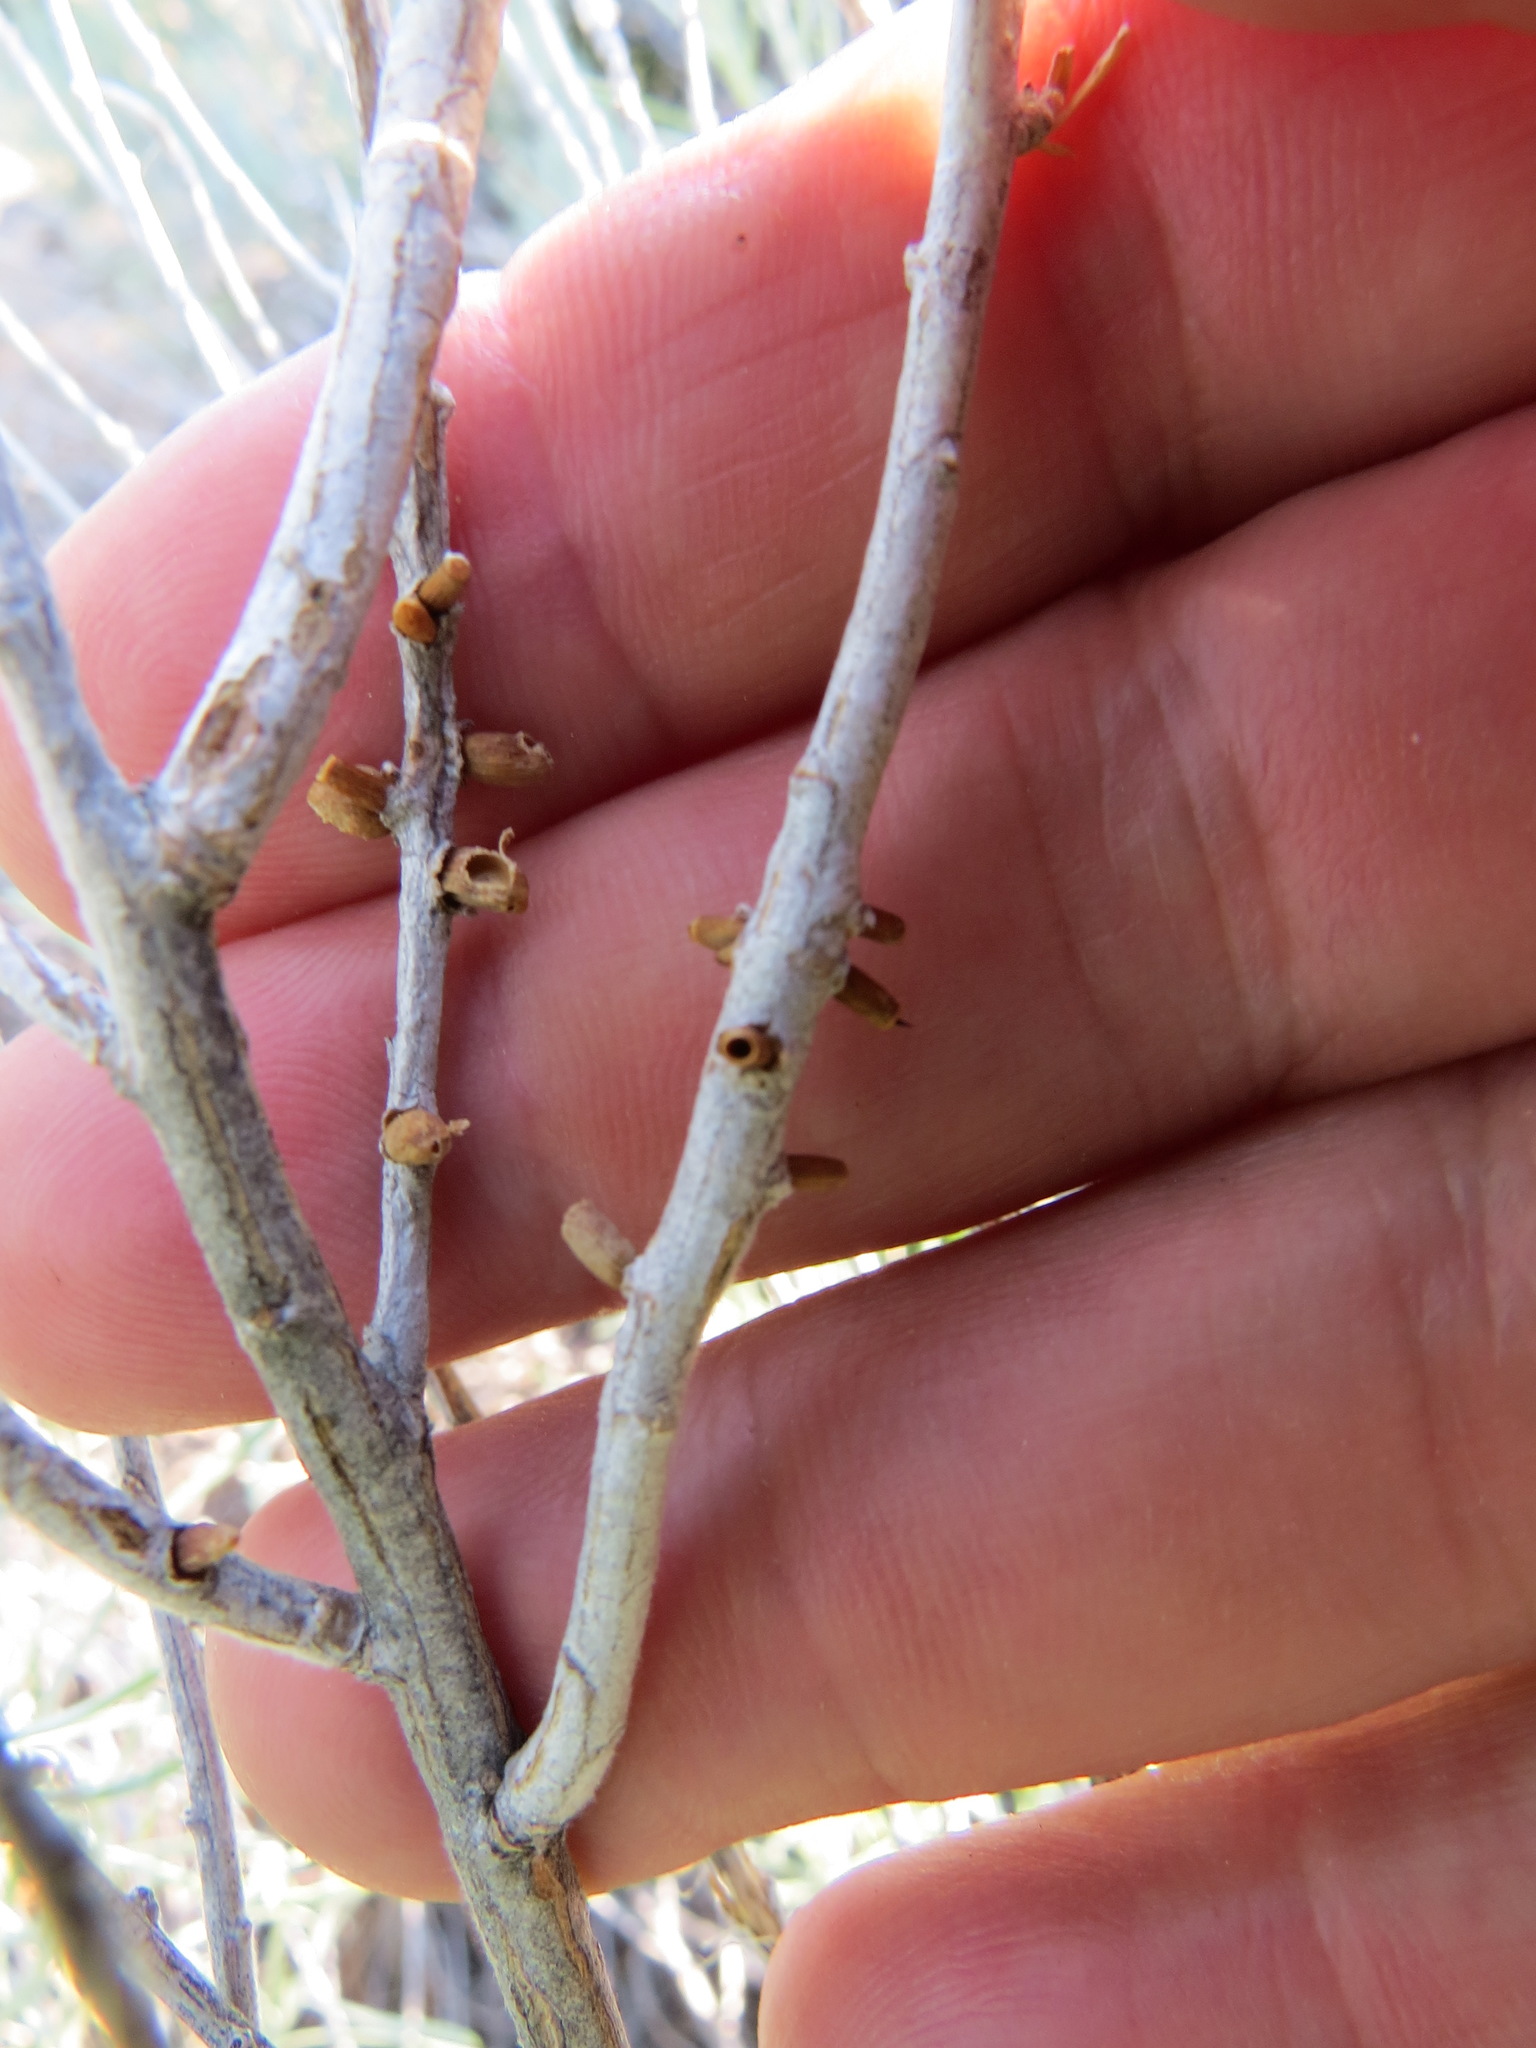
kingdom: Animalia
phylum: Arthropoda
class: Insecta
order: Diptera
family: Cecidomyiidae
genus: Rhopalomyia
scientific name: Rhopalomyia chrysothamni
